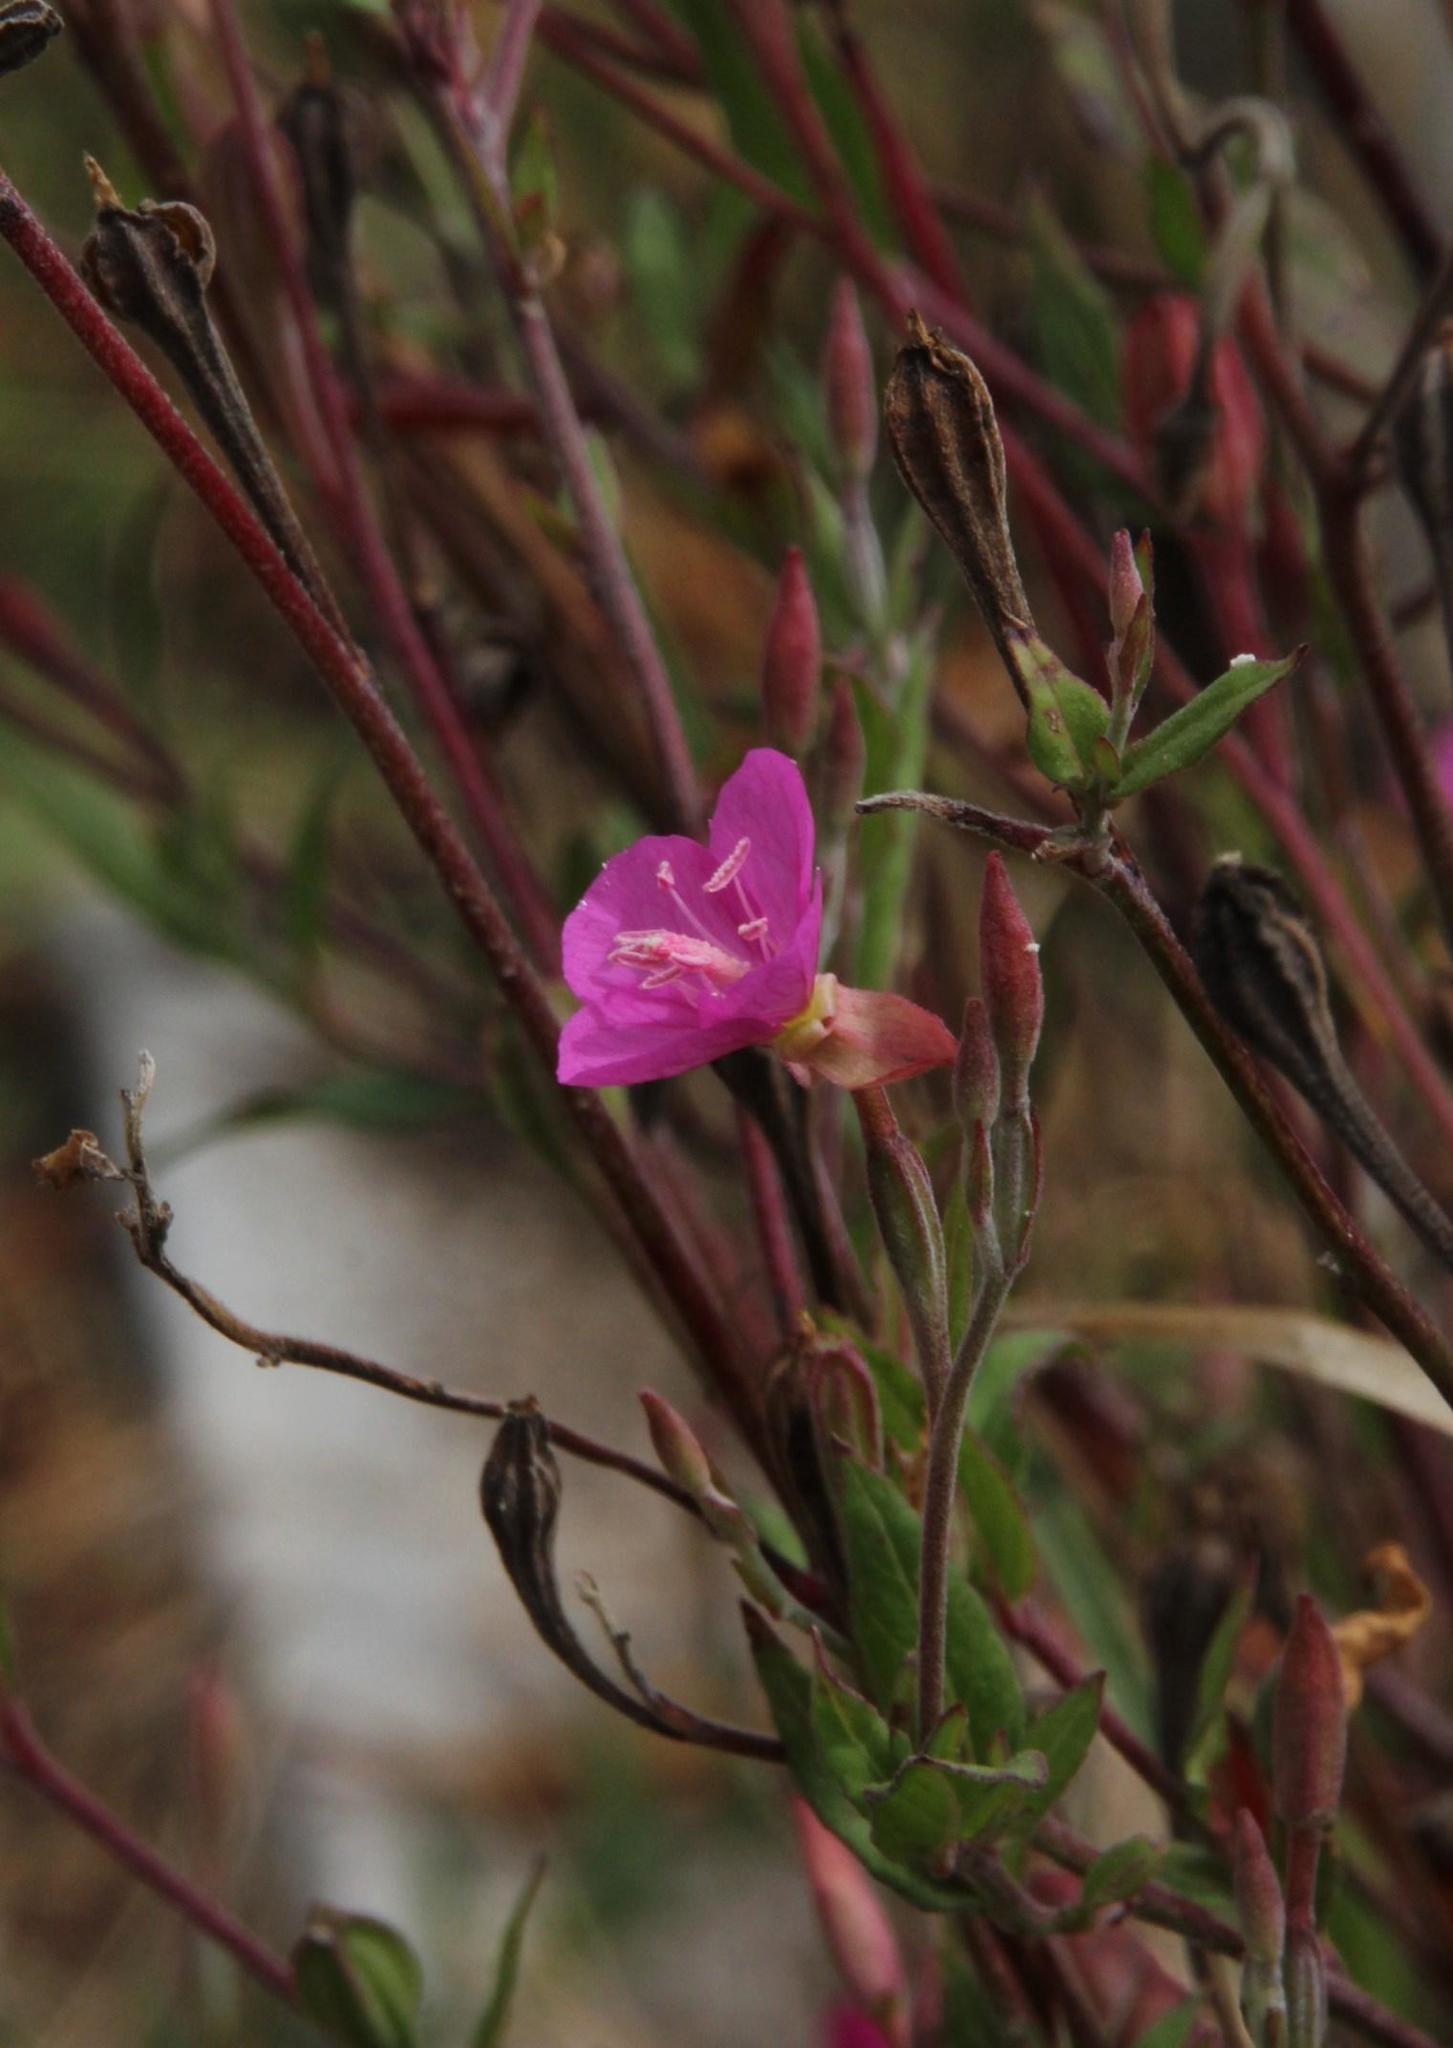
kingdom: Plantae
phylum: Tracheophyta
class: Magnoliopsida
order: Myrtales
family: Onagraceae
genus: Oenothera
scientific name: Oenothera rosea
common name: Rosy evening-primrose
